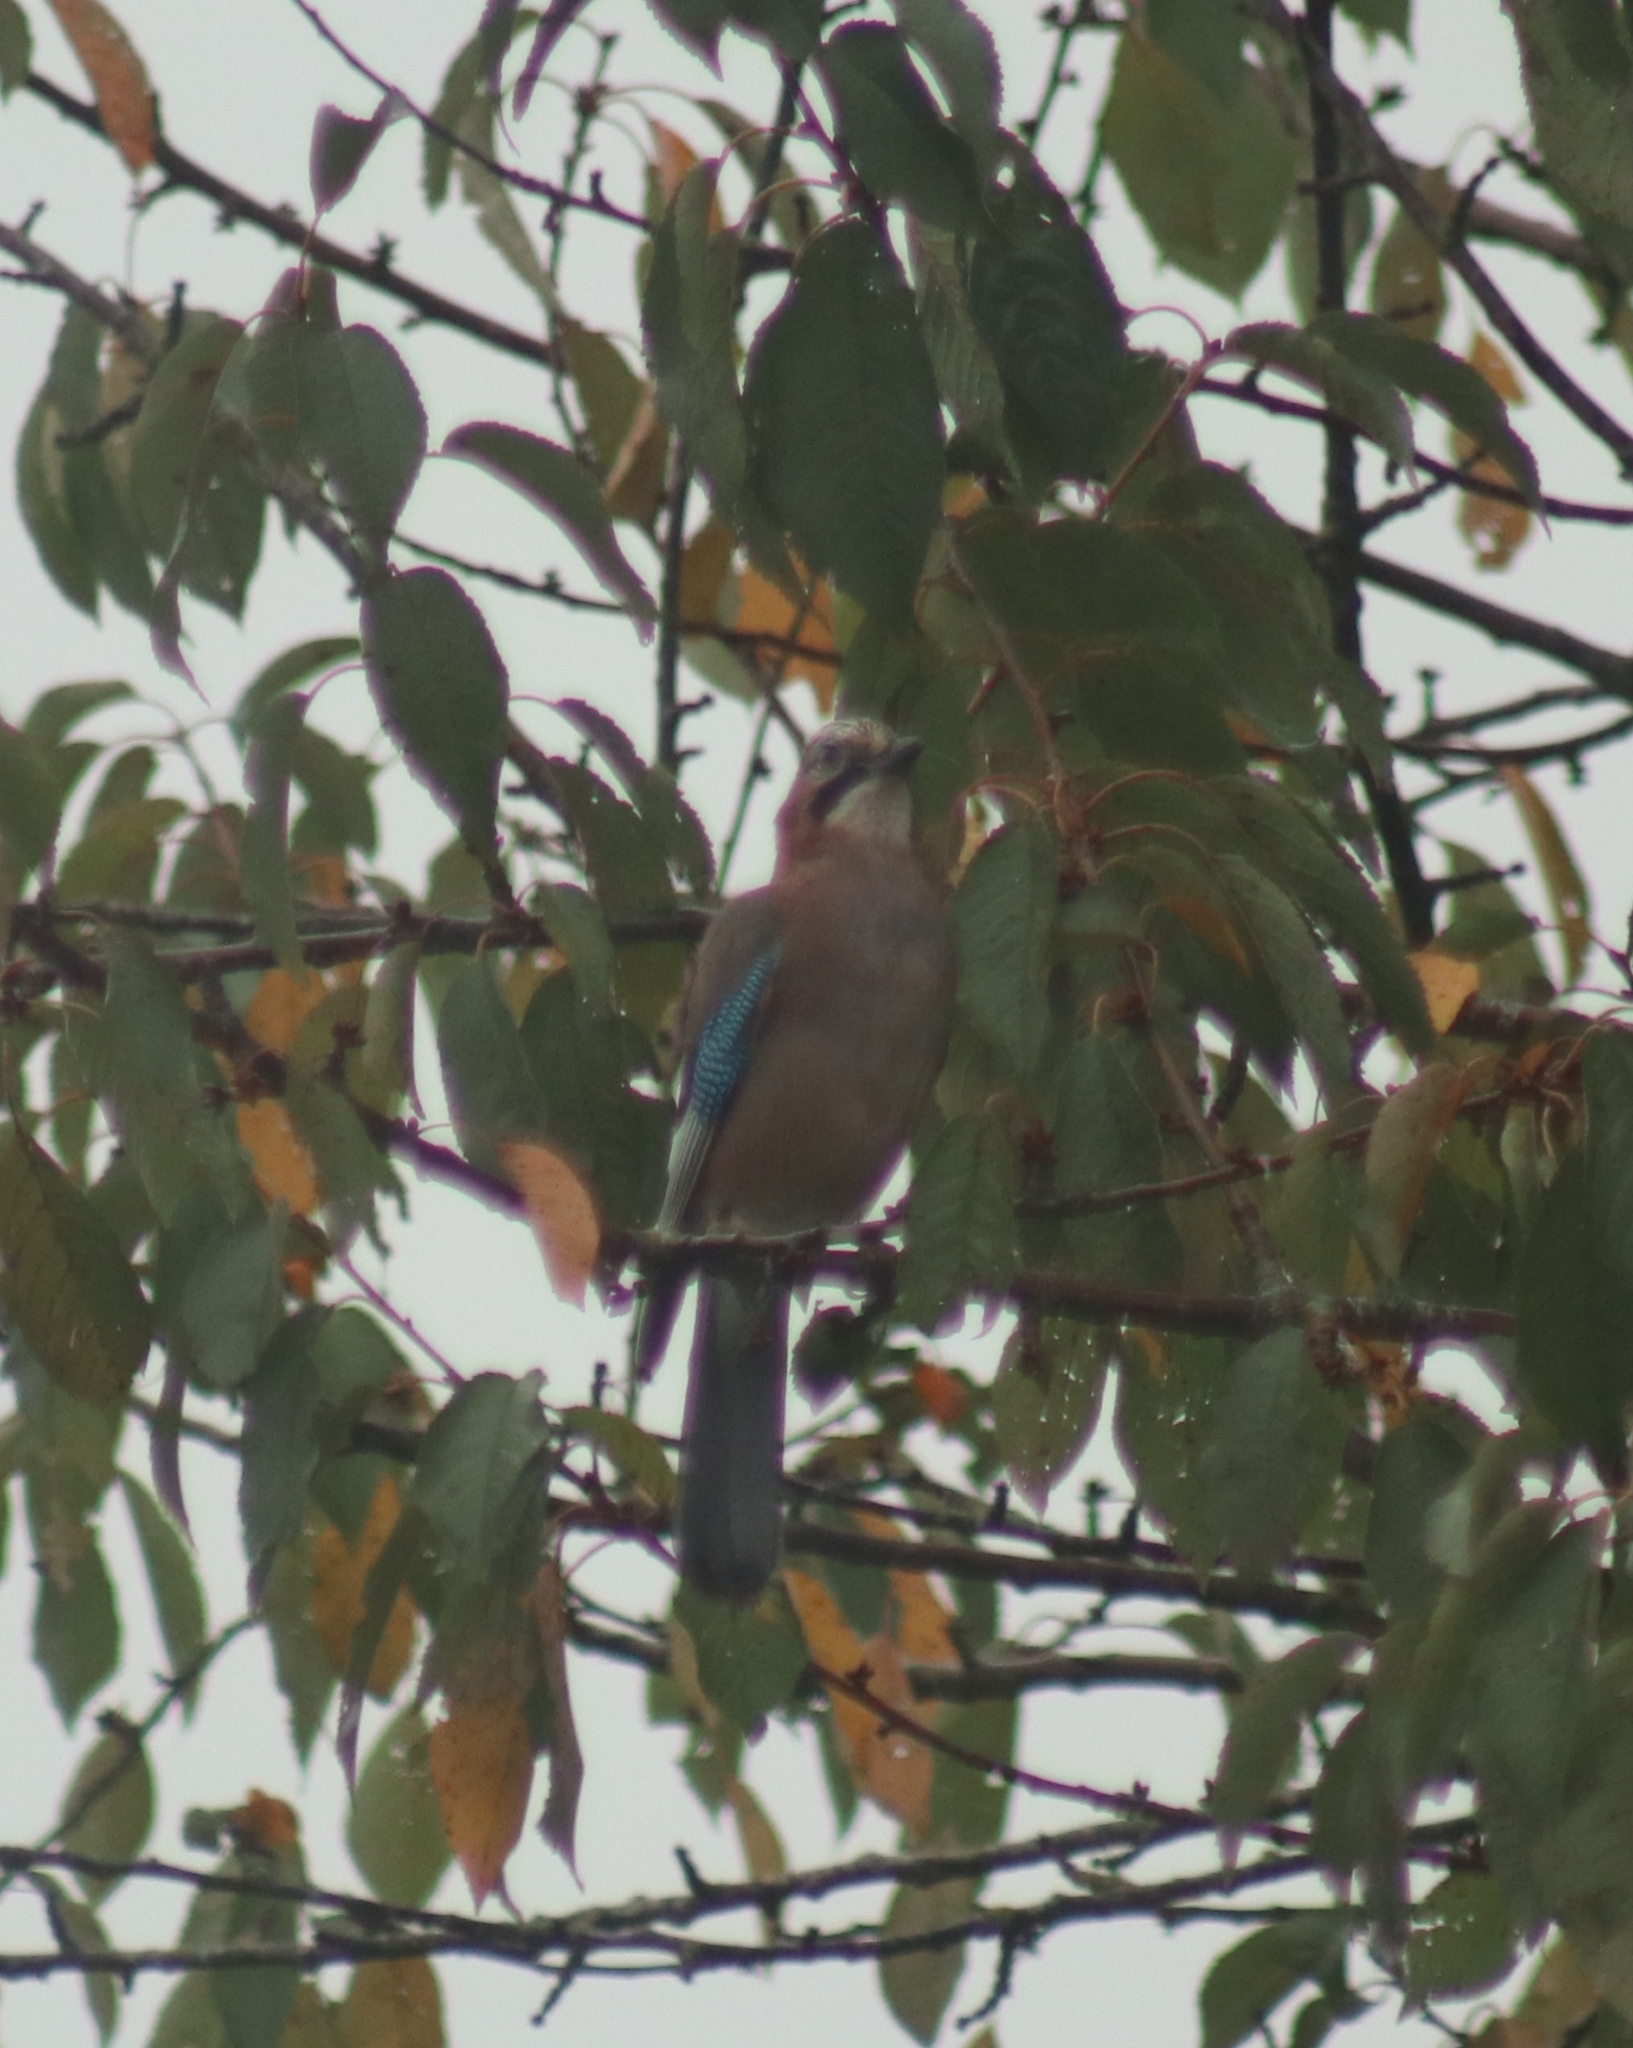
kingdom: Animalia
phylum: Chordata
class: Aves
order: Passeriformes
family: Corvidae
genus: Garrulus
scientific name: Garrulus glandarius
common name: Eurasian jay
